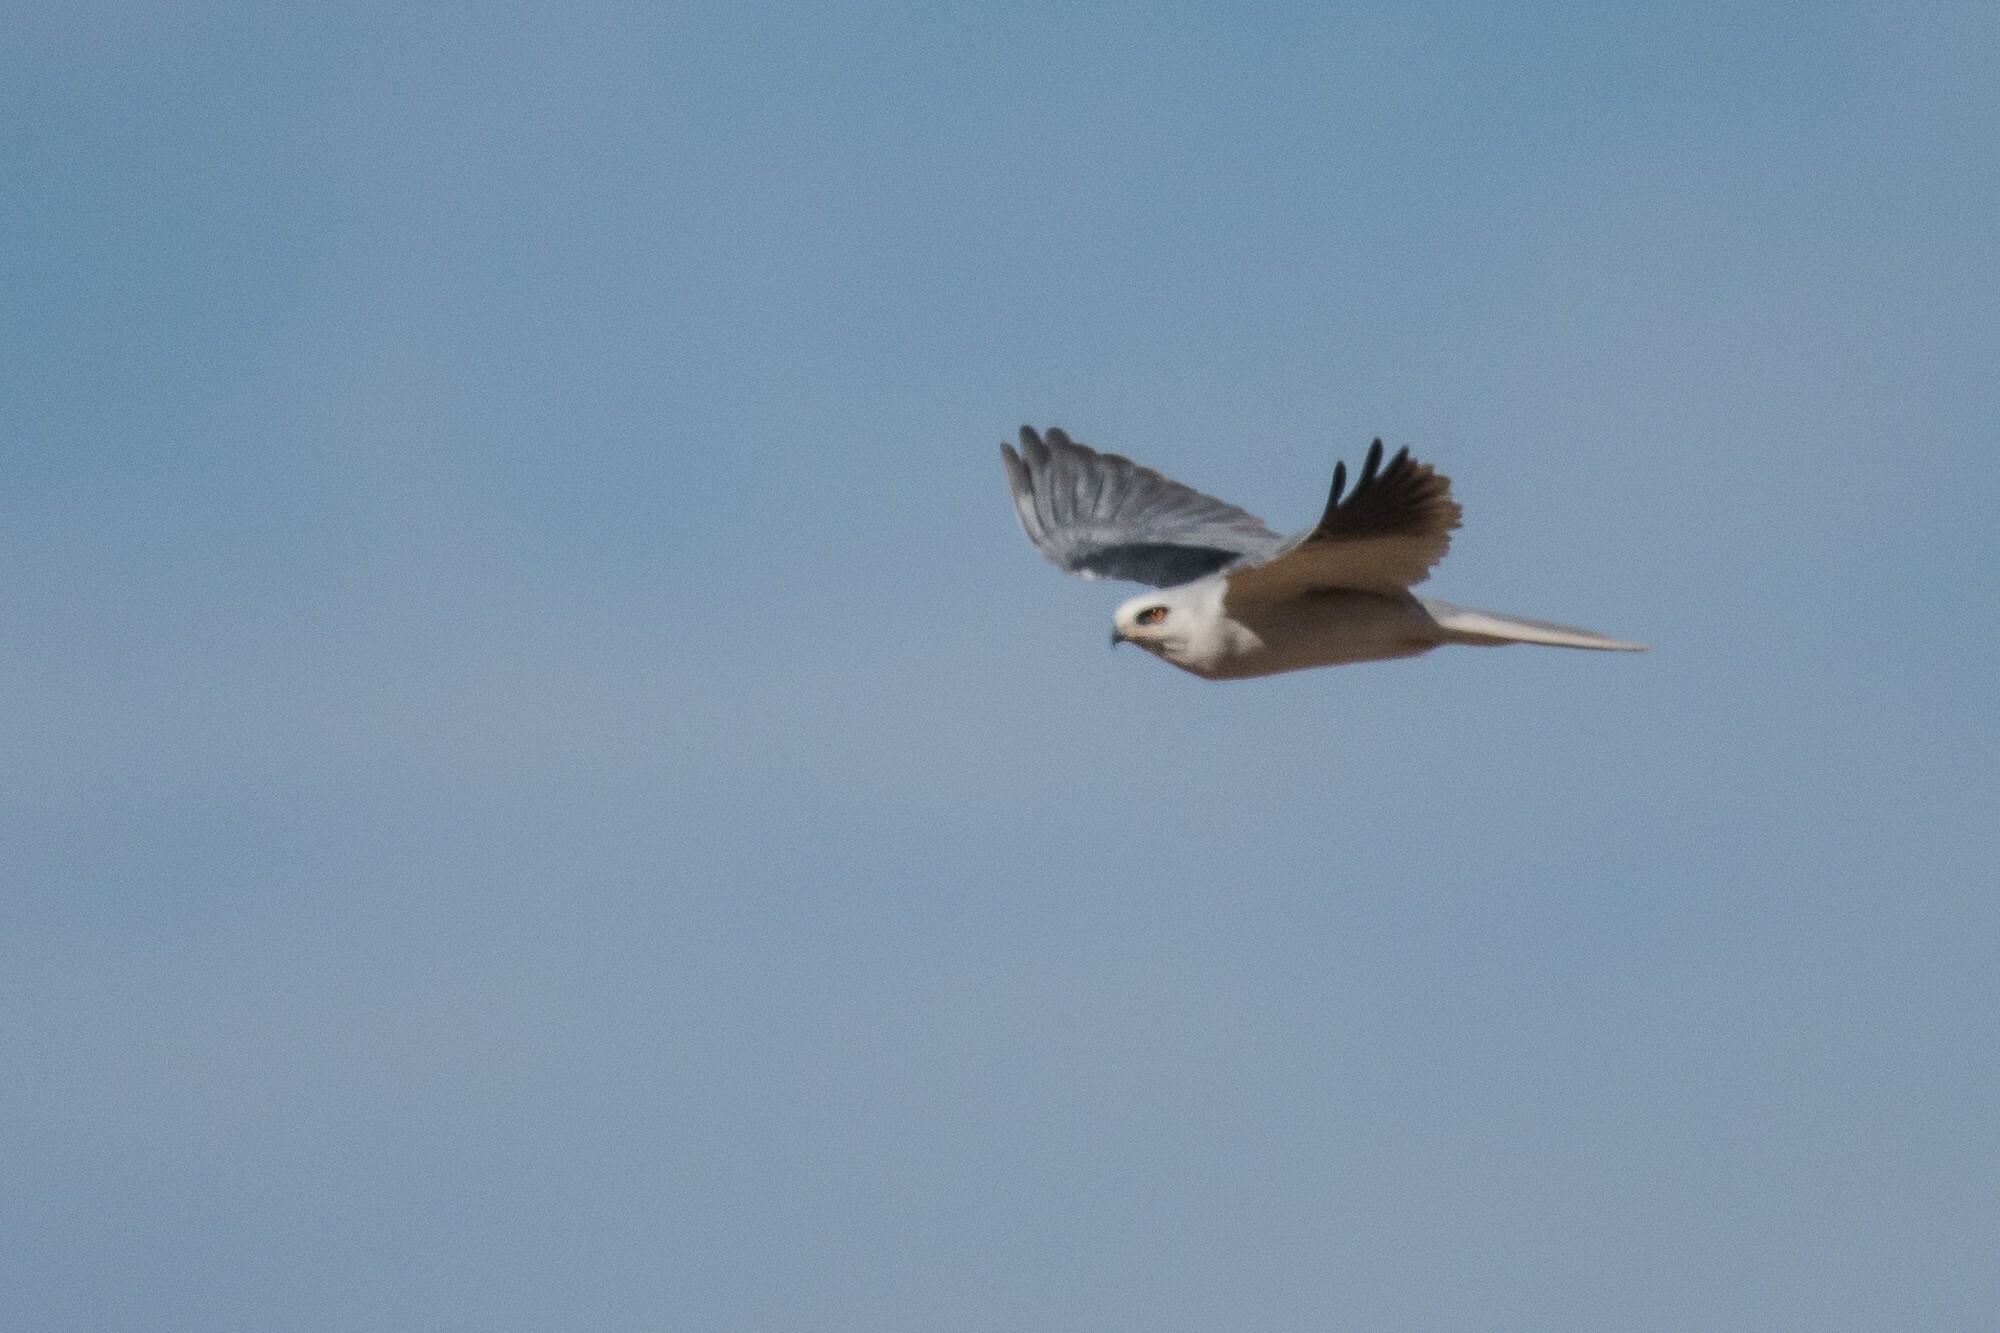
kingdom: Animalia
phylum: Chordata
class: Aves
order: Accipitriformes
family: Accipitridae
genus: Elanus
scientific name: Elanus leucurus
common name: White-tailed kite
